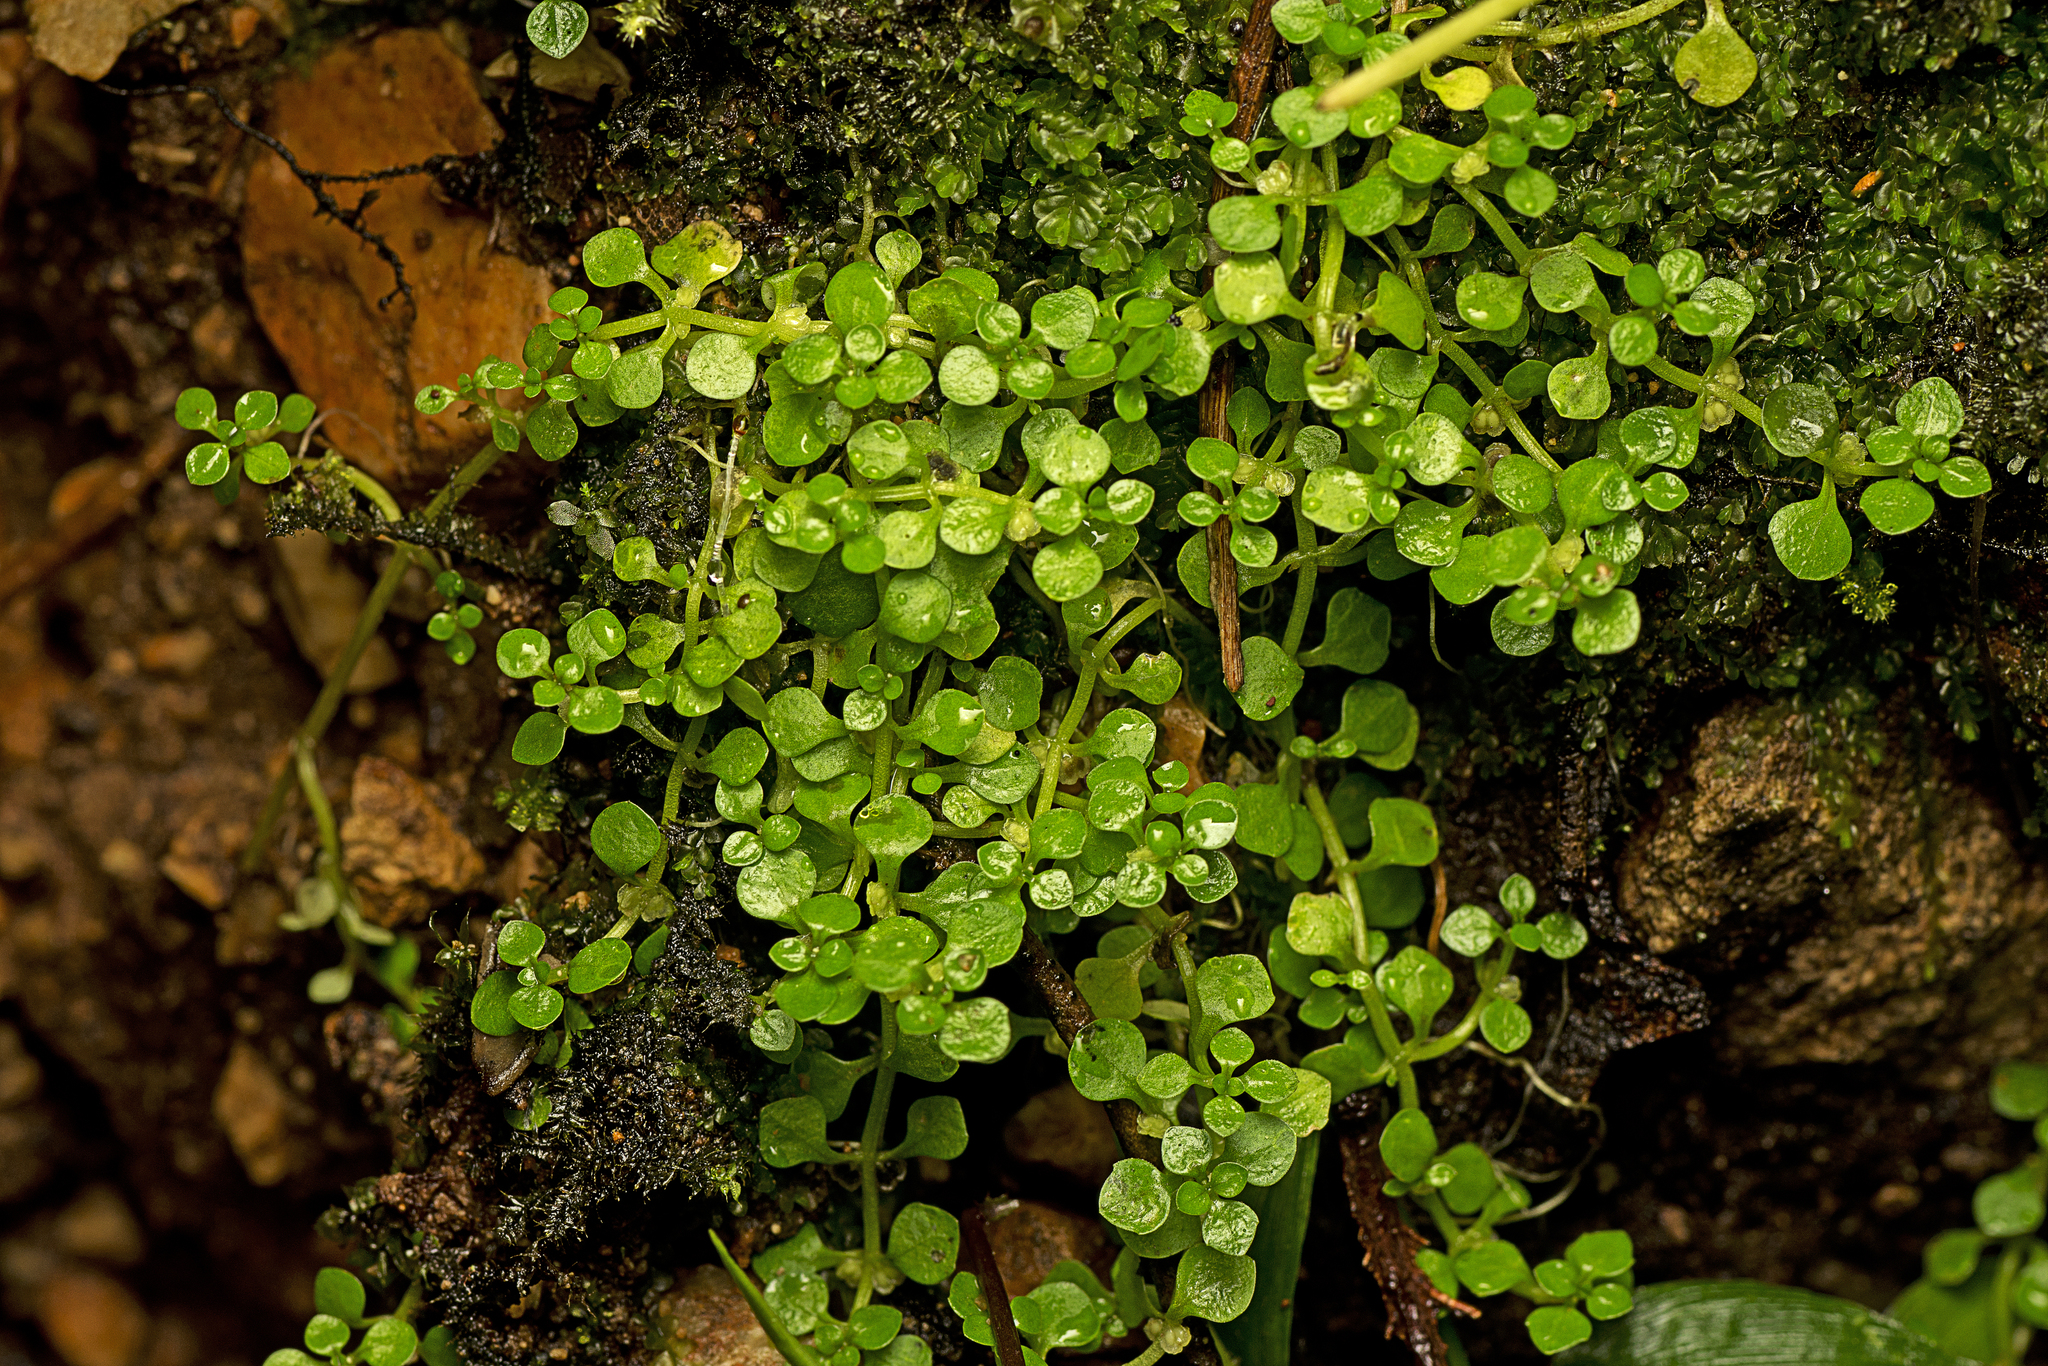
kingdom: Plantae
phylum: Tracheophyta
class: Magnoliopsida
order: Lamiales
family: Plantaginaceae
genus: Callitriche
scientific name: Callitriche muelleri
